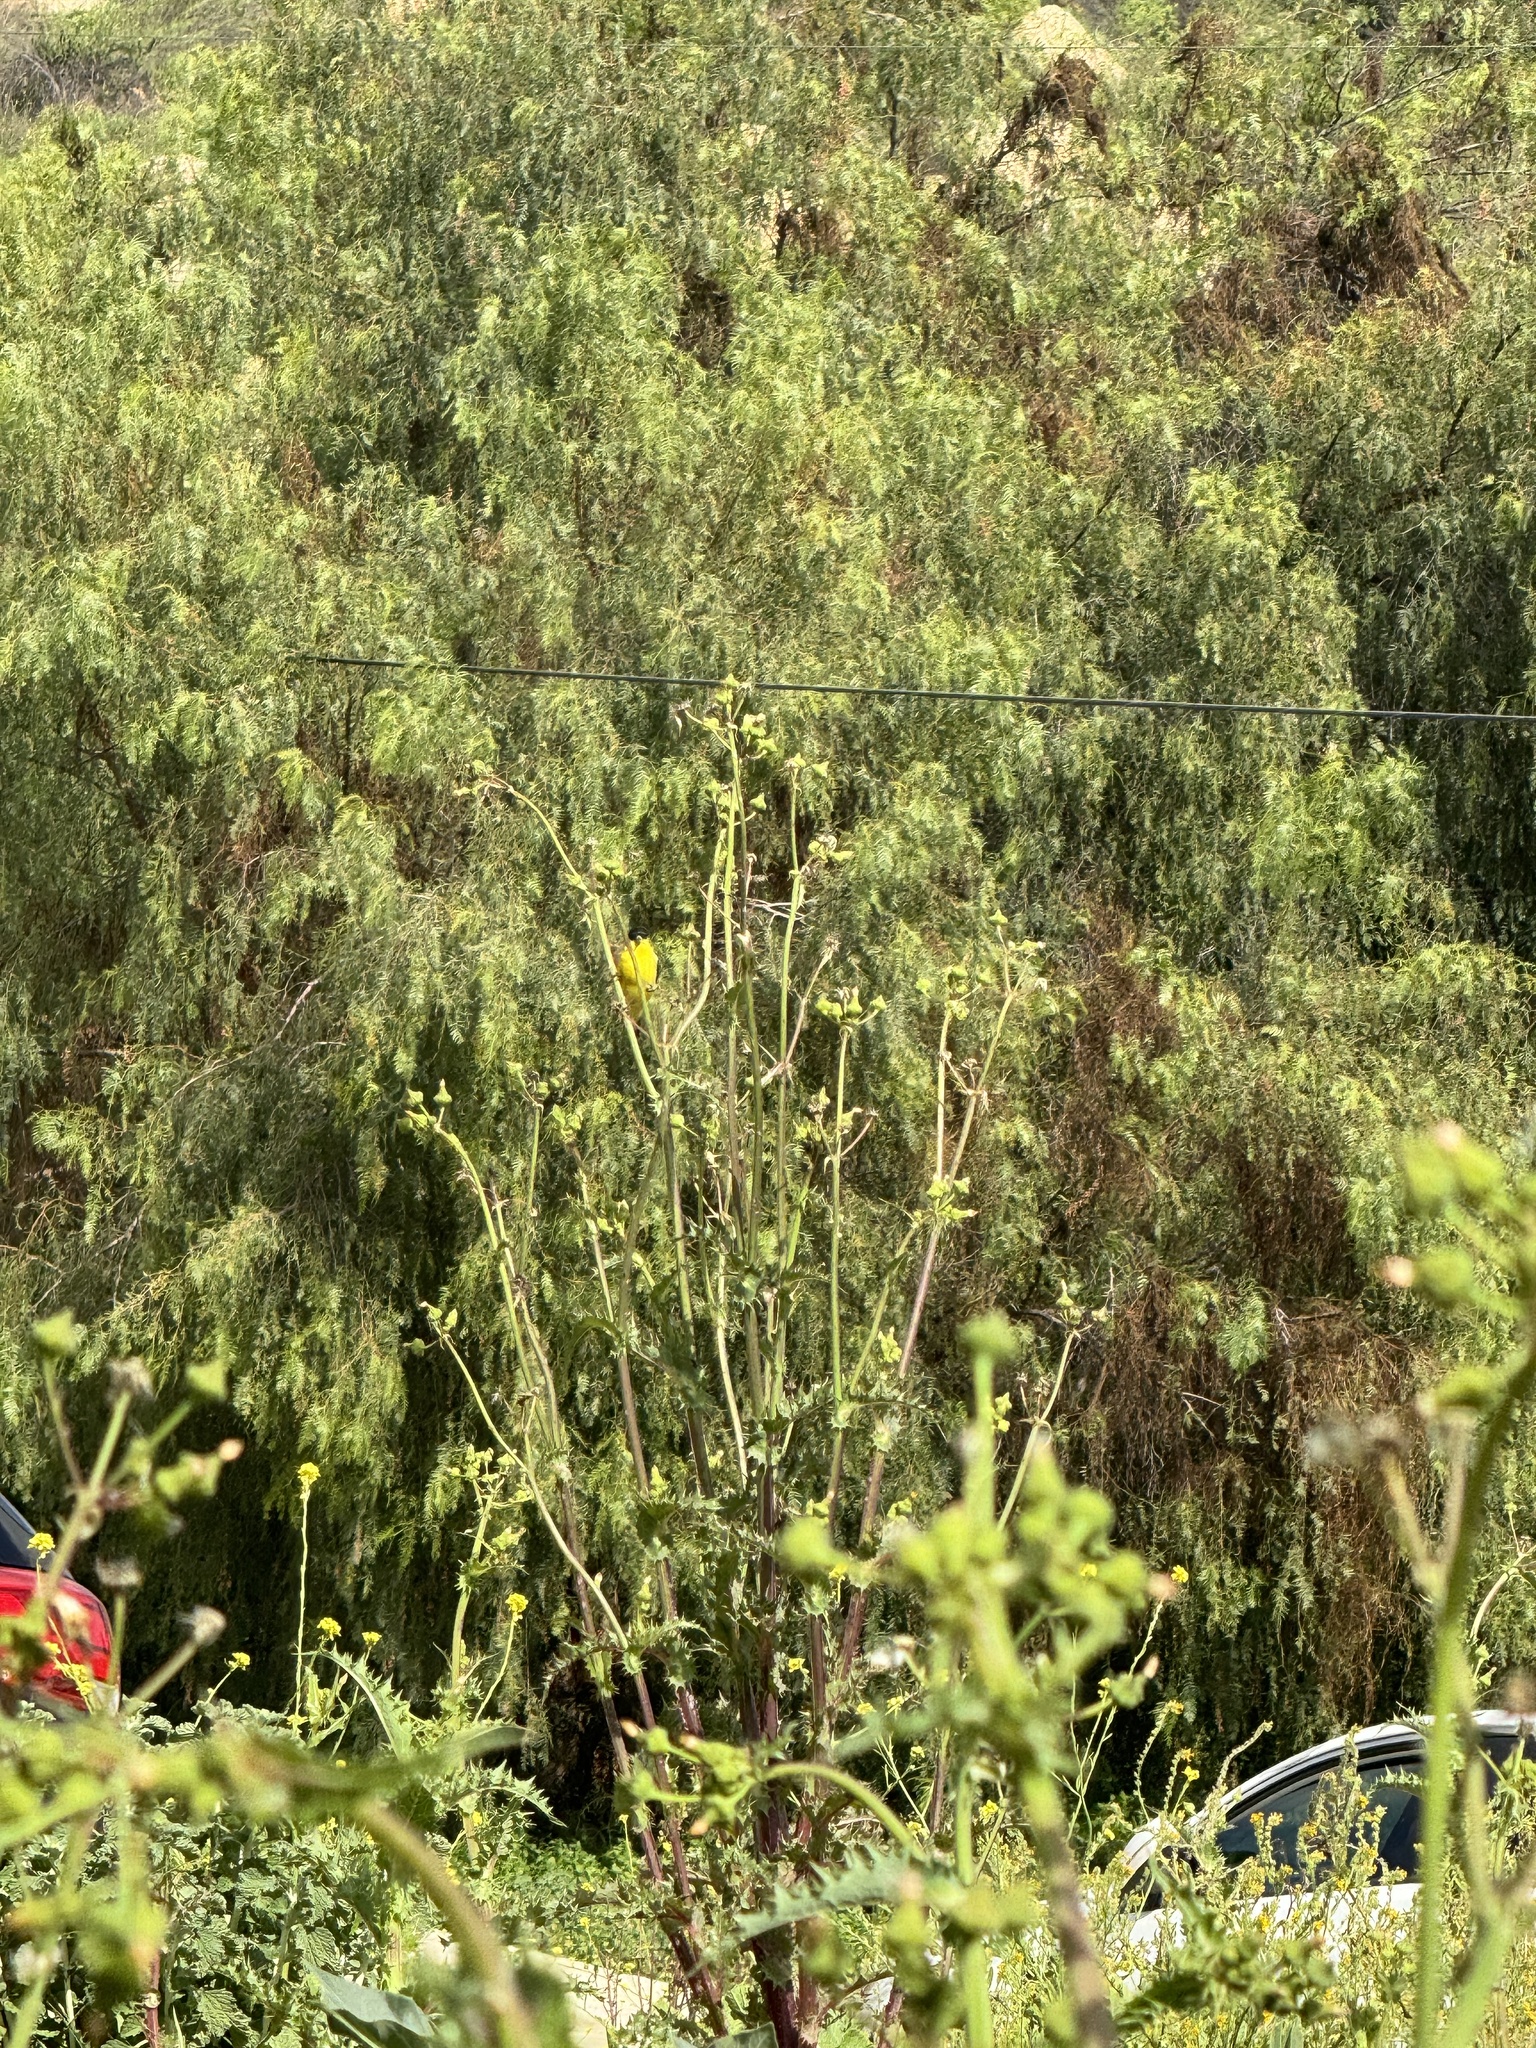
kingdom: Animalia
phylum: Chordata
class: Aves
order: Passeriformes
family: Fringillidae
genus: Spinus
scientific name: Spinus psaltria
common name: Lesser goldfinch
